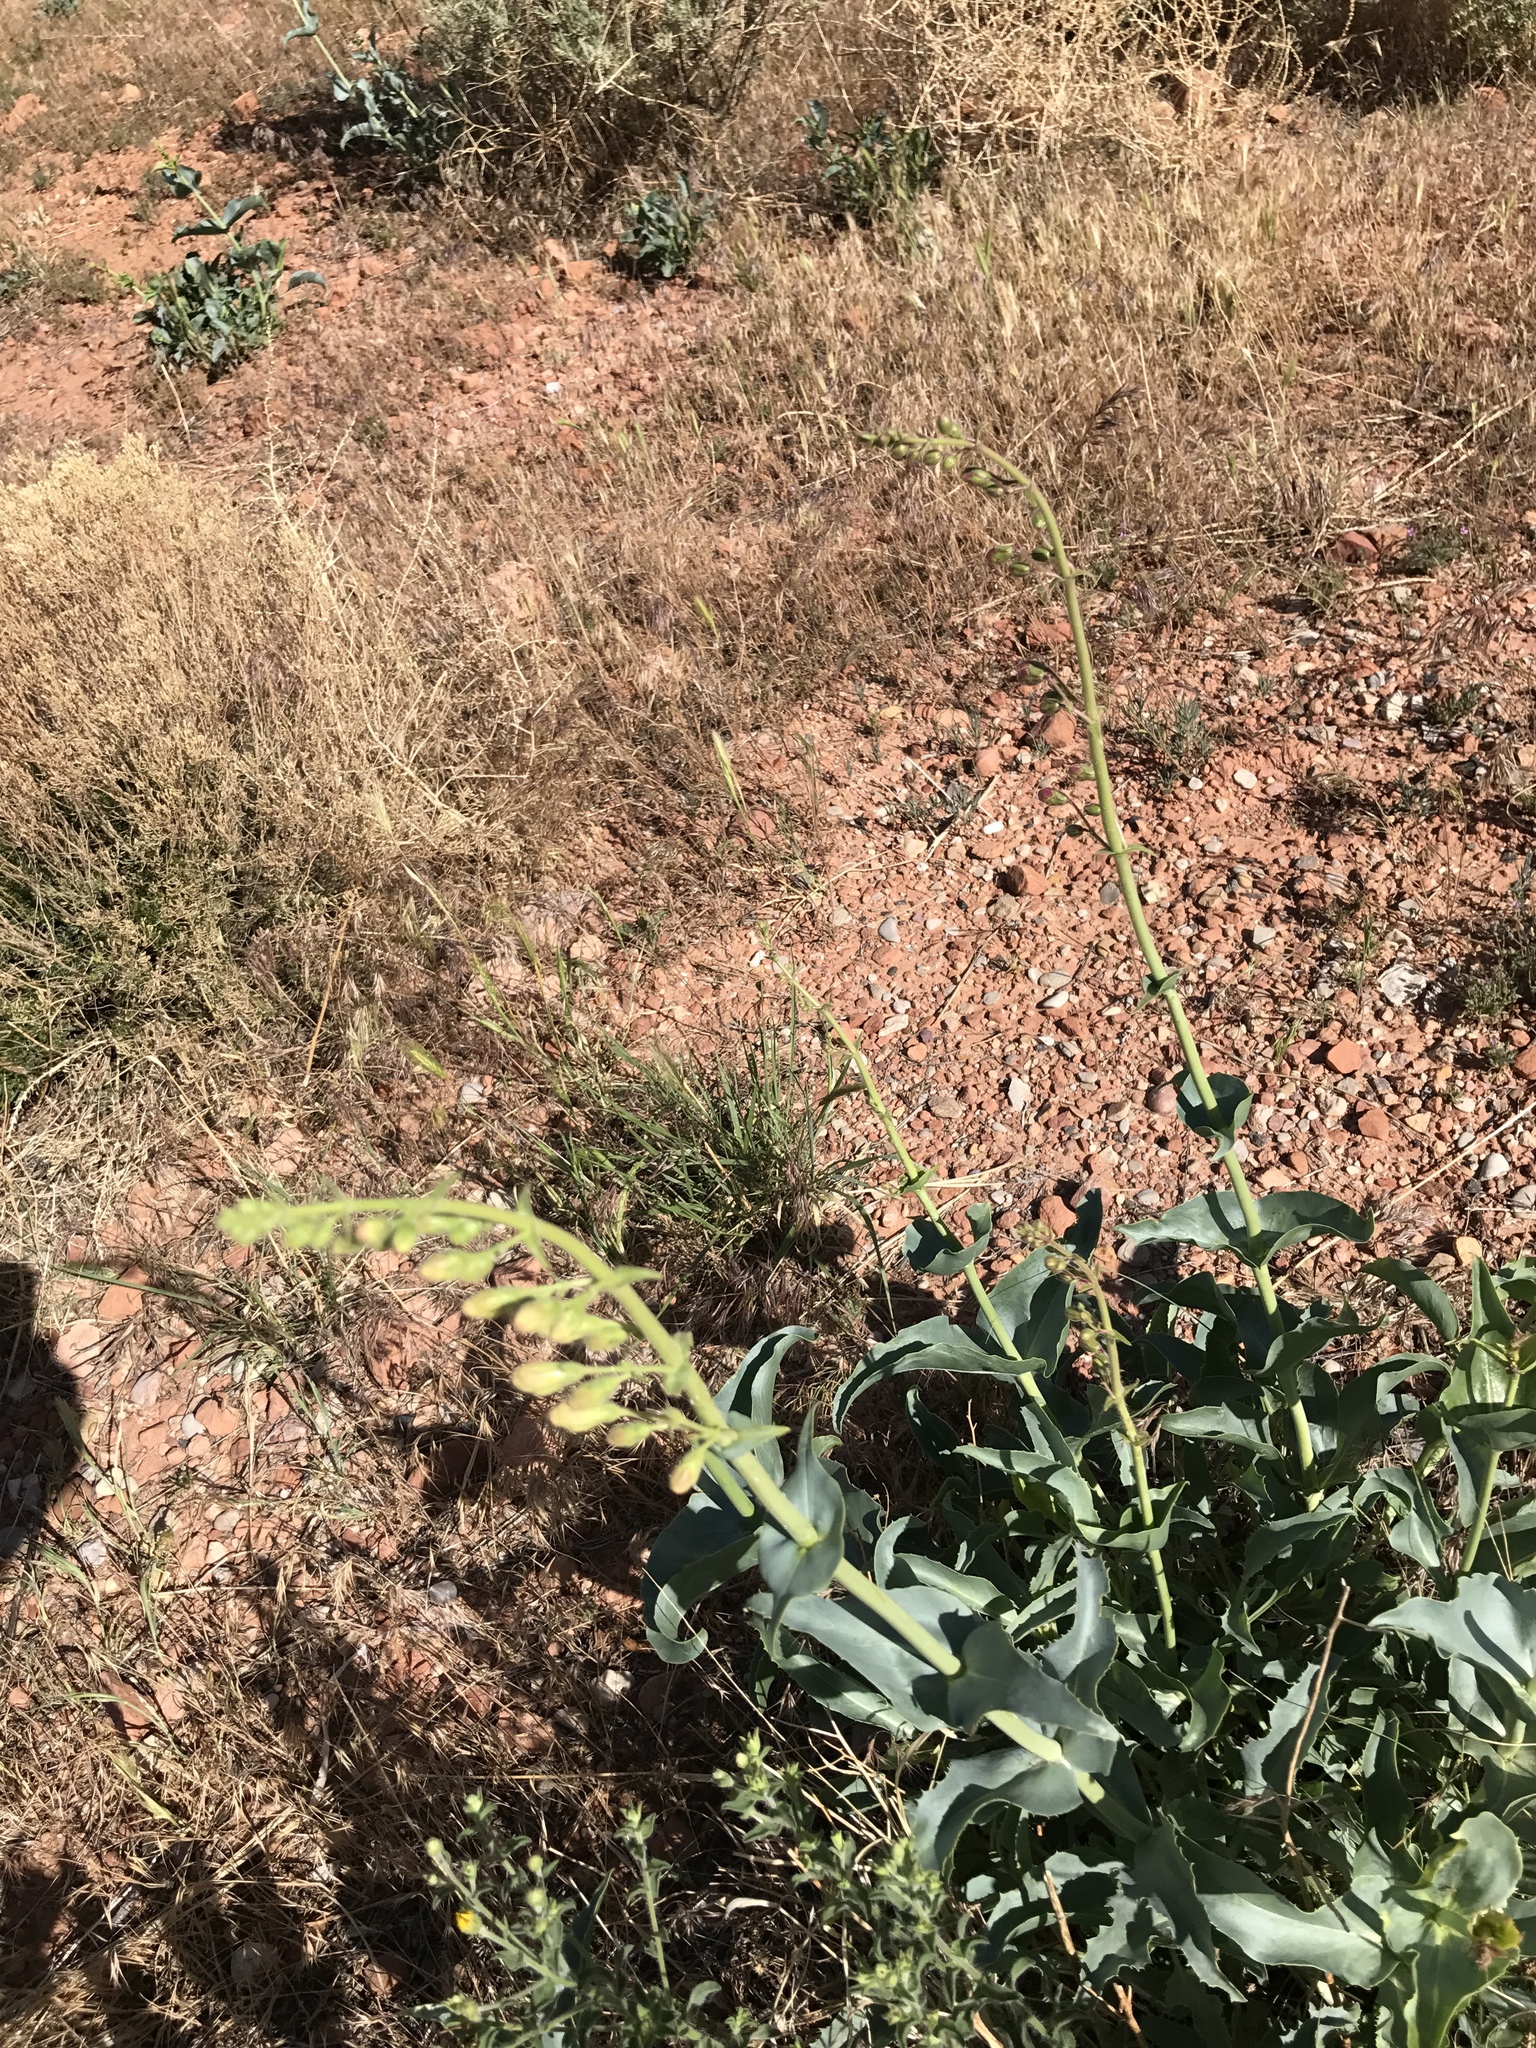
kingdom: Plantae
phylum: Tracheophyta
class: Magnoliopsida
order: Lamiales
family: Plantaginaceae
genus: Penstemon
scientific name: Penstemon palmeri
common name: Palmer penstemon
